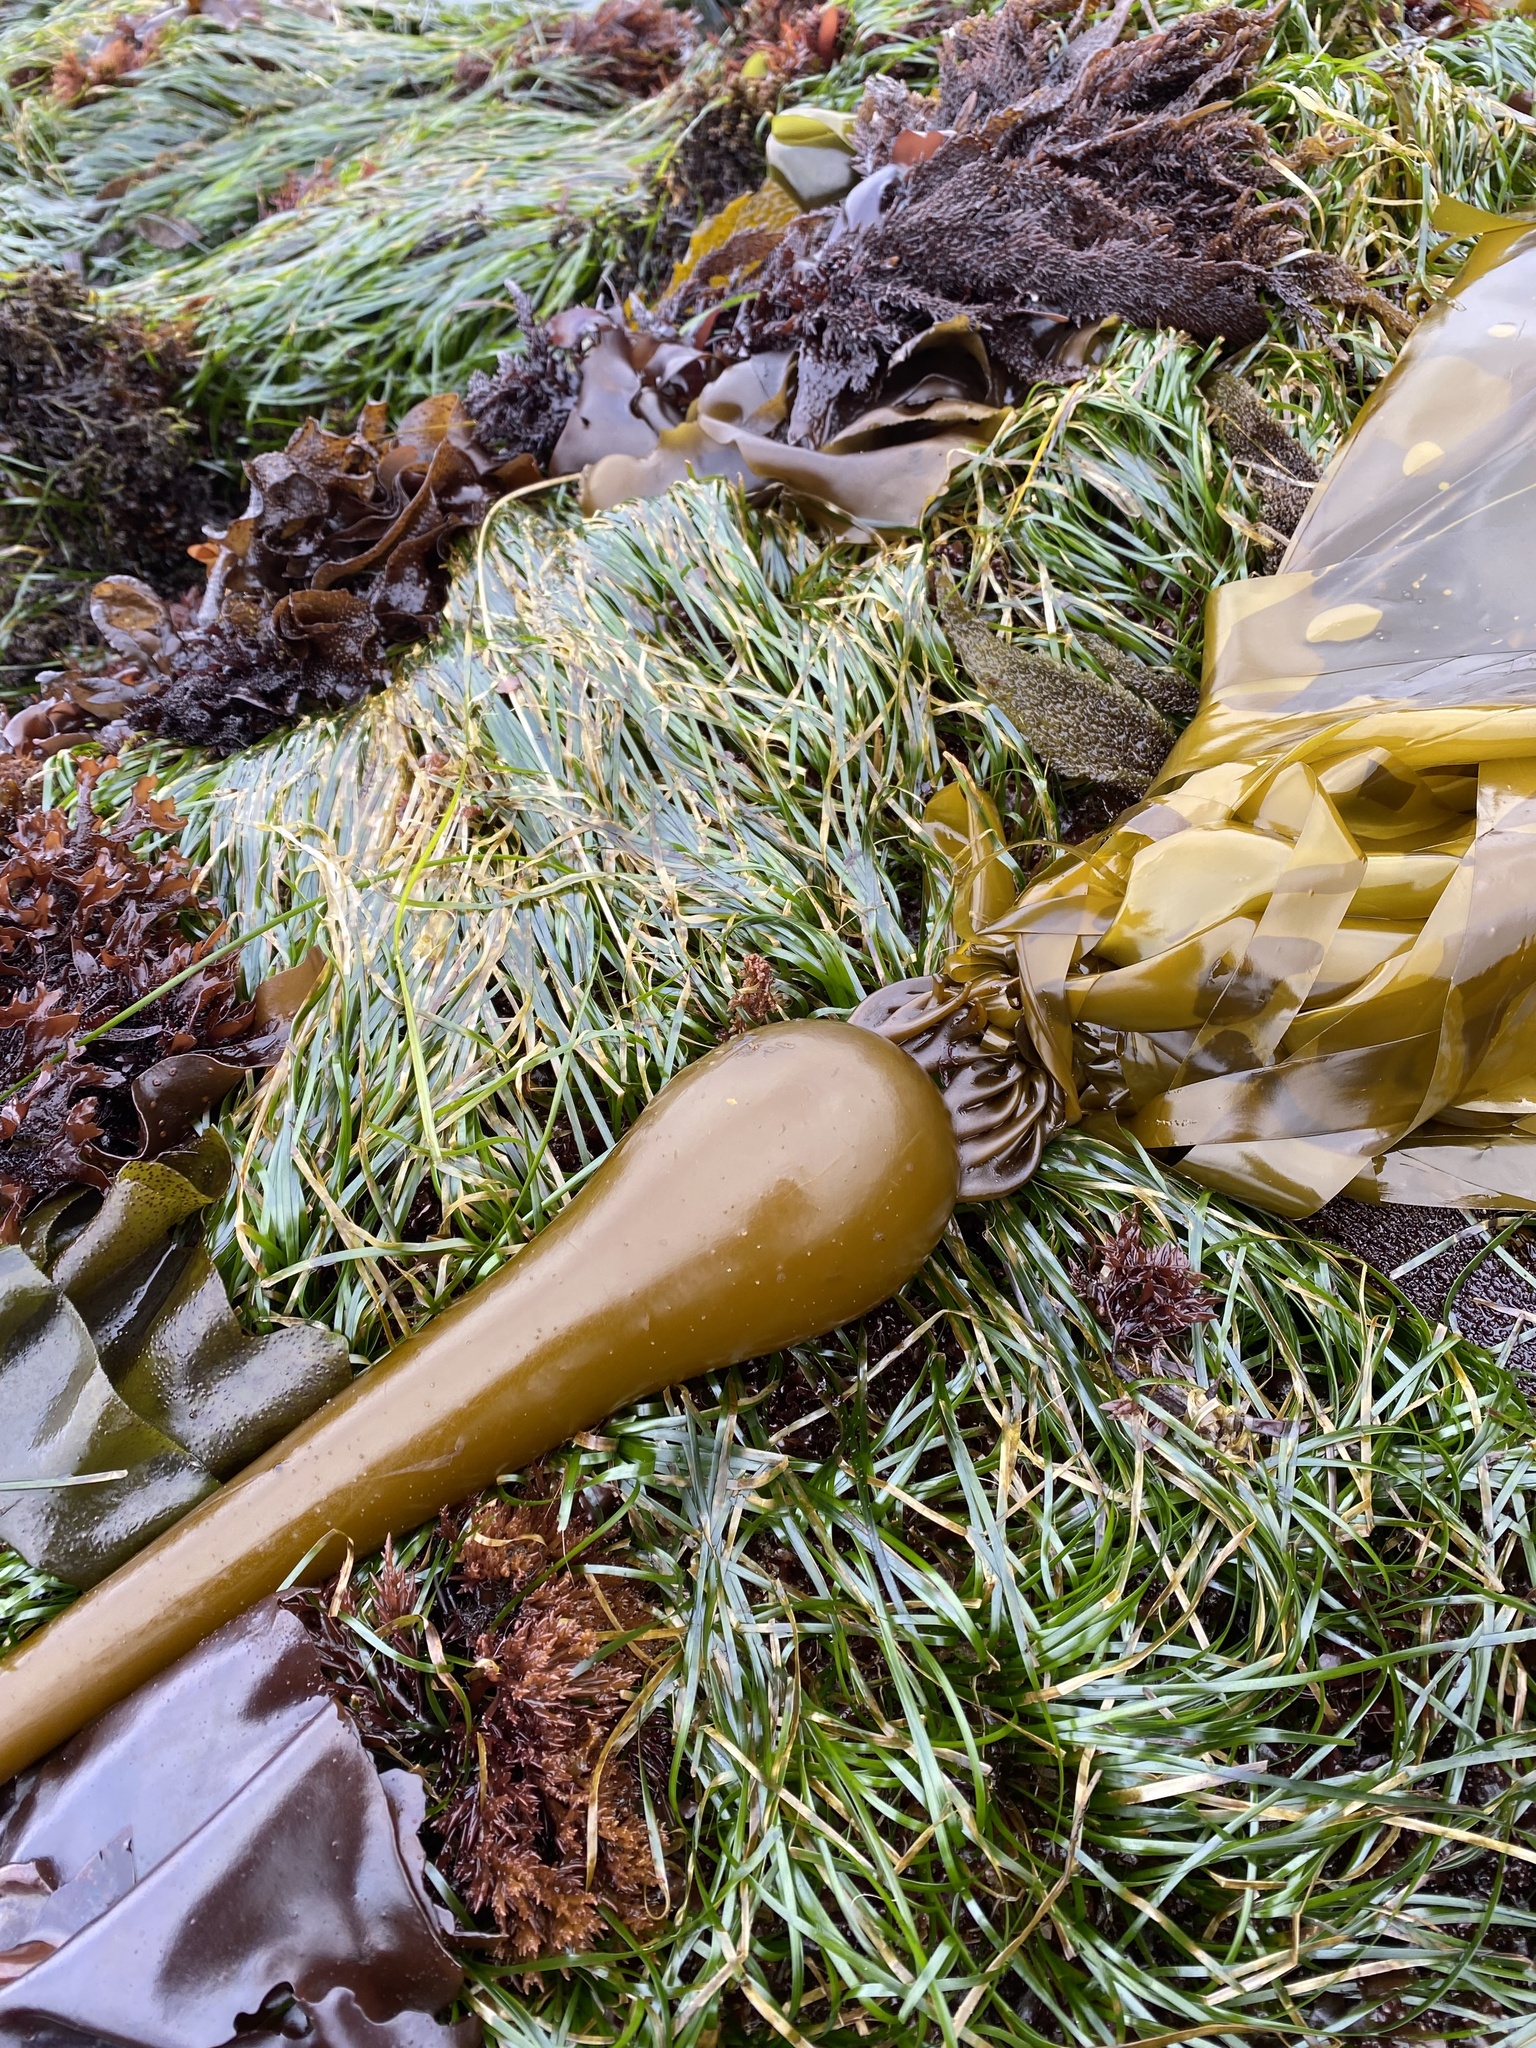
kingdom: Chromista
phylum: Ochrophyta
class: Phaeophyceae
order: Laminariales
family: Laminariaceae
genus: Nereocystis
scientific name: Nereocystis luetkeana
